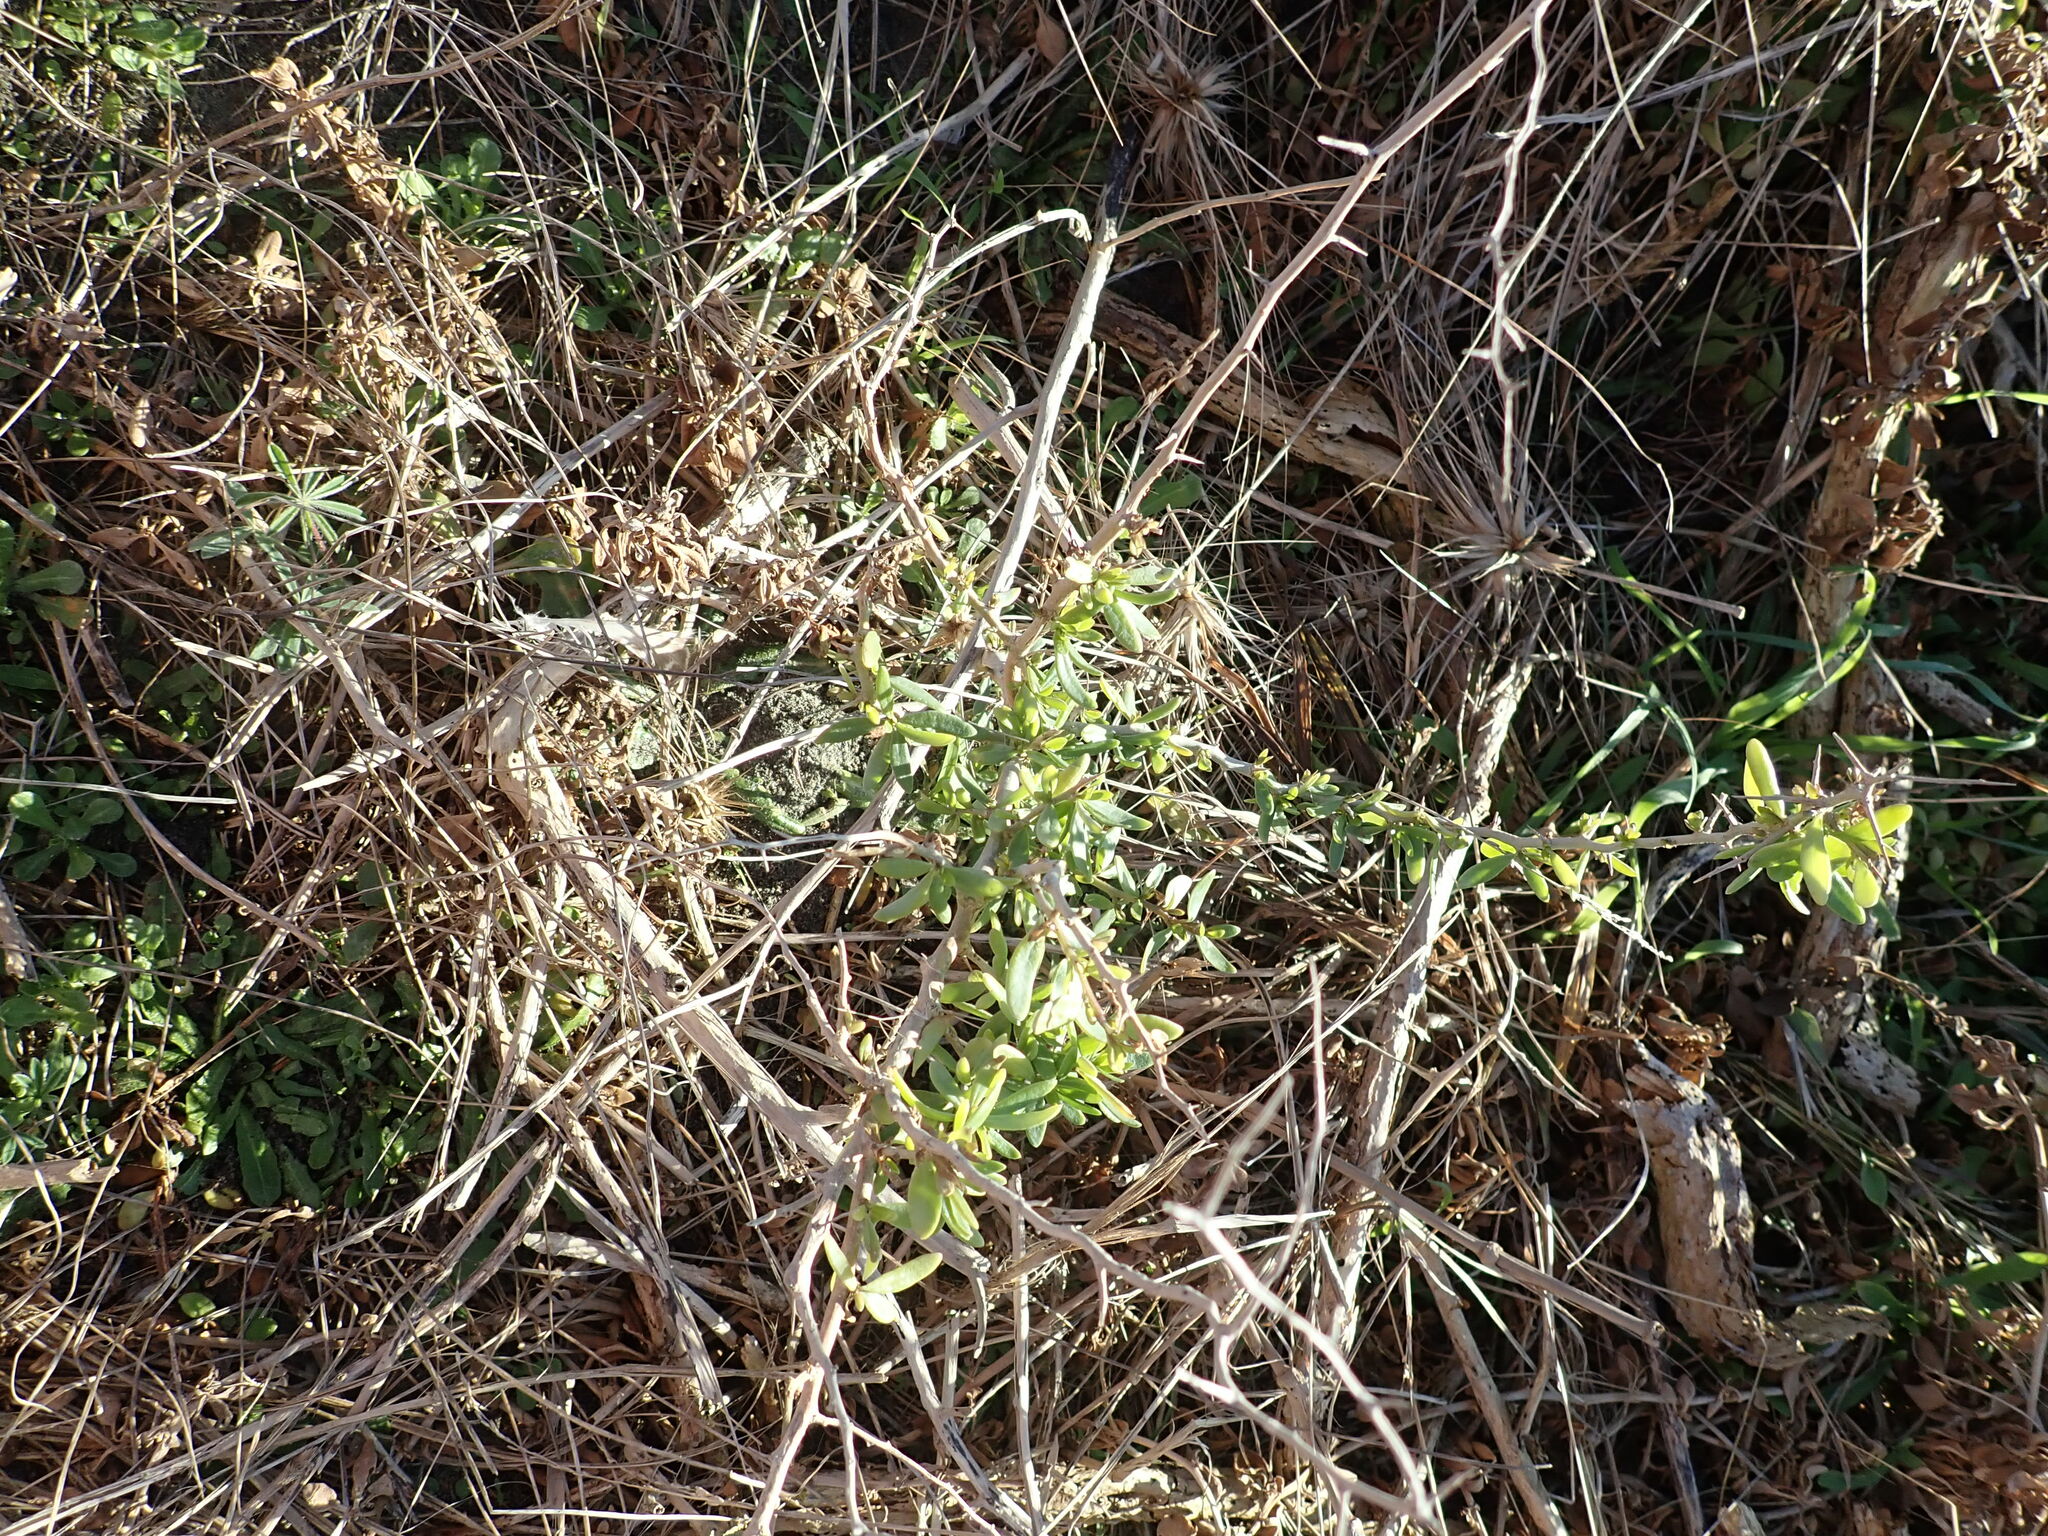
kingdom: Plantae
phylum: Tracheophyta
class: Magnoliopsida
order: Solanales
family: Solanaceae
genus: Lycium
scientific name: Lycium ferocissimum
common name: African boxthorn
